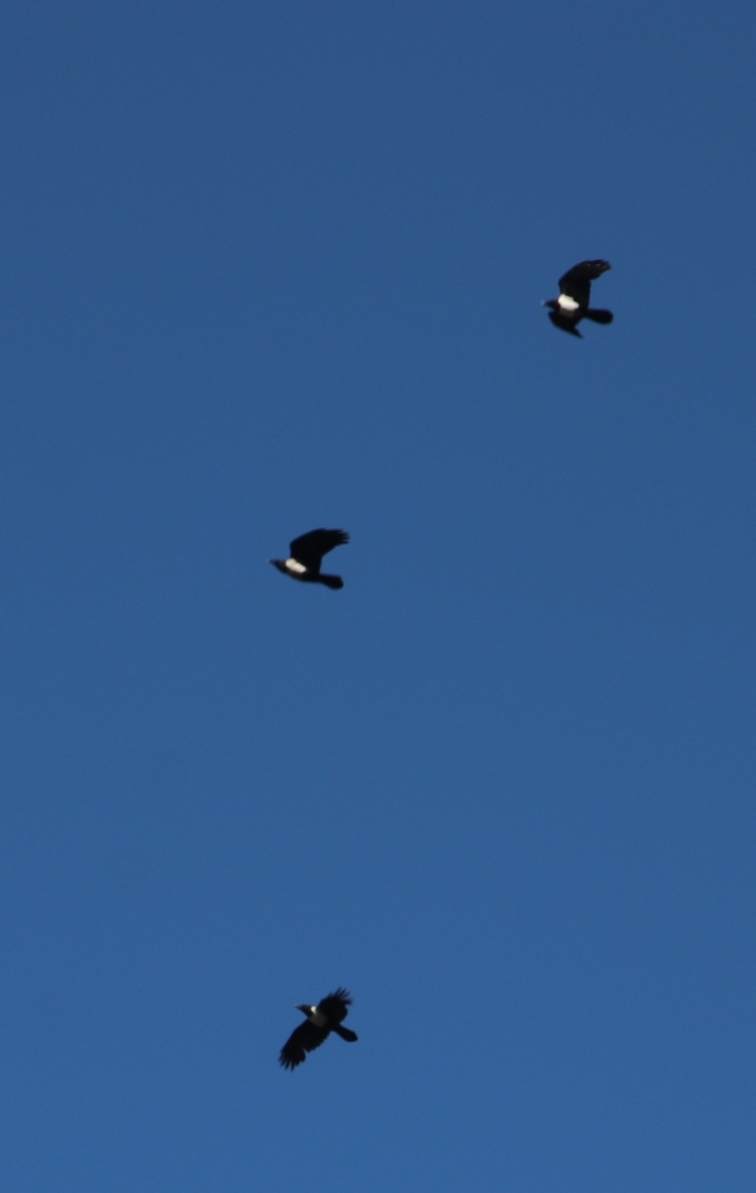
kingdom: Animalia
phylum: Chordata
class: Aves
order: Passeriformes
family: Corvidae
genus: Corvus
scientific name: Corvus albus
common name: Pied crow
